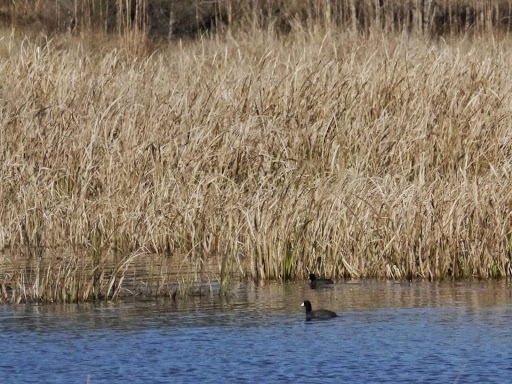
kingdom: Animalia
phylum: Chordata
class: Aves
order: Gruiformes
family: Rallidae
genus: Fulica
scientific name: Fulica americana
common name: American coot
